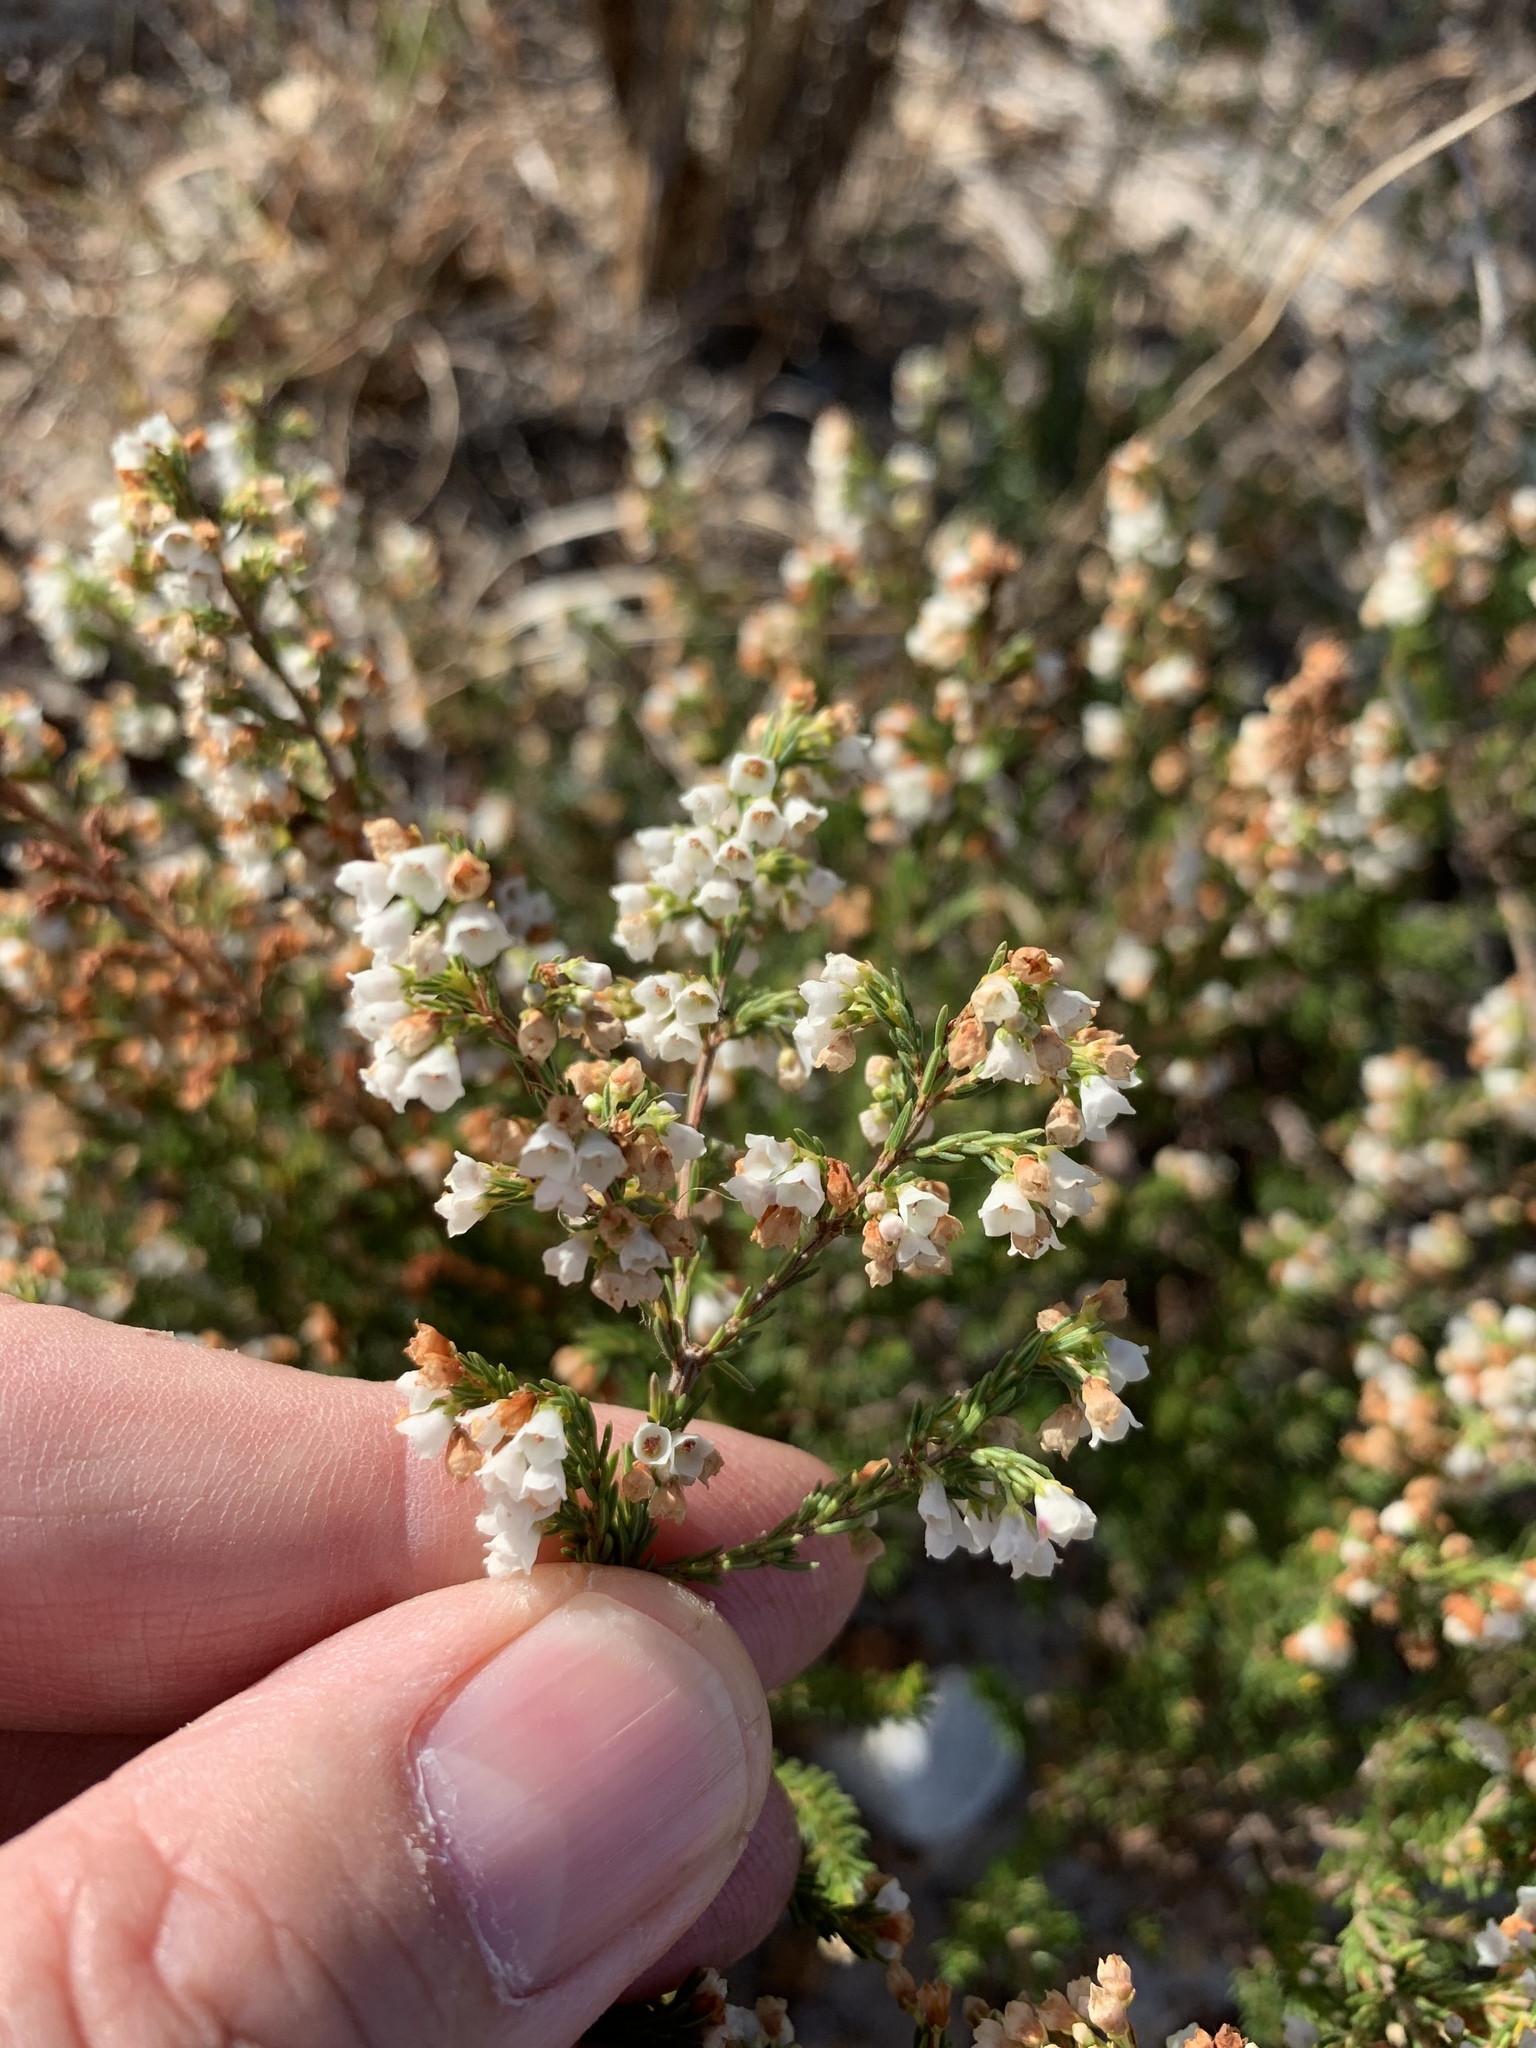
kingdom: Plantae
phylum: Tracheophyta
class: Magnoliopsida
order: Ericales
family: Ericaceae
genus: Erica
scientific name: Erica subdivaricata
